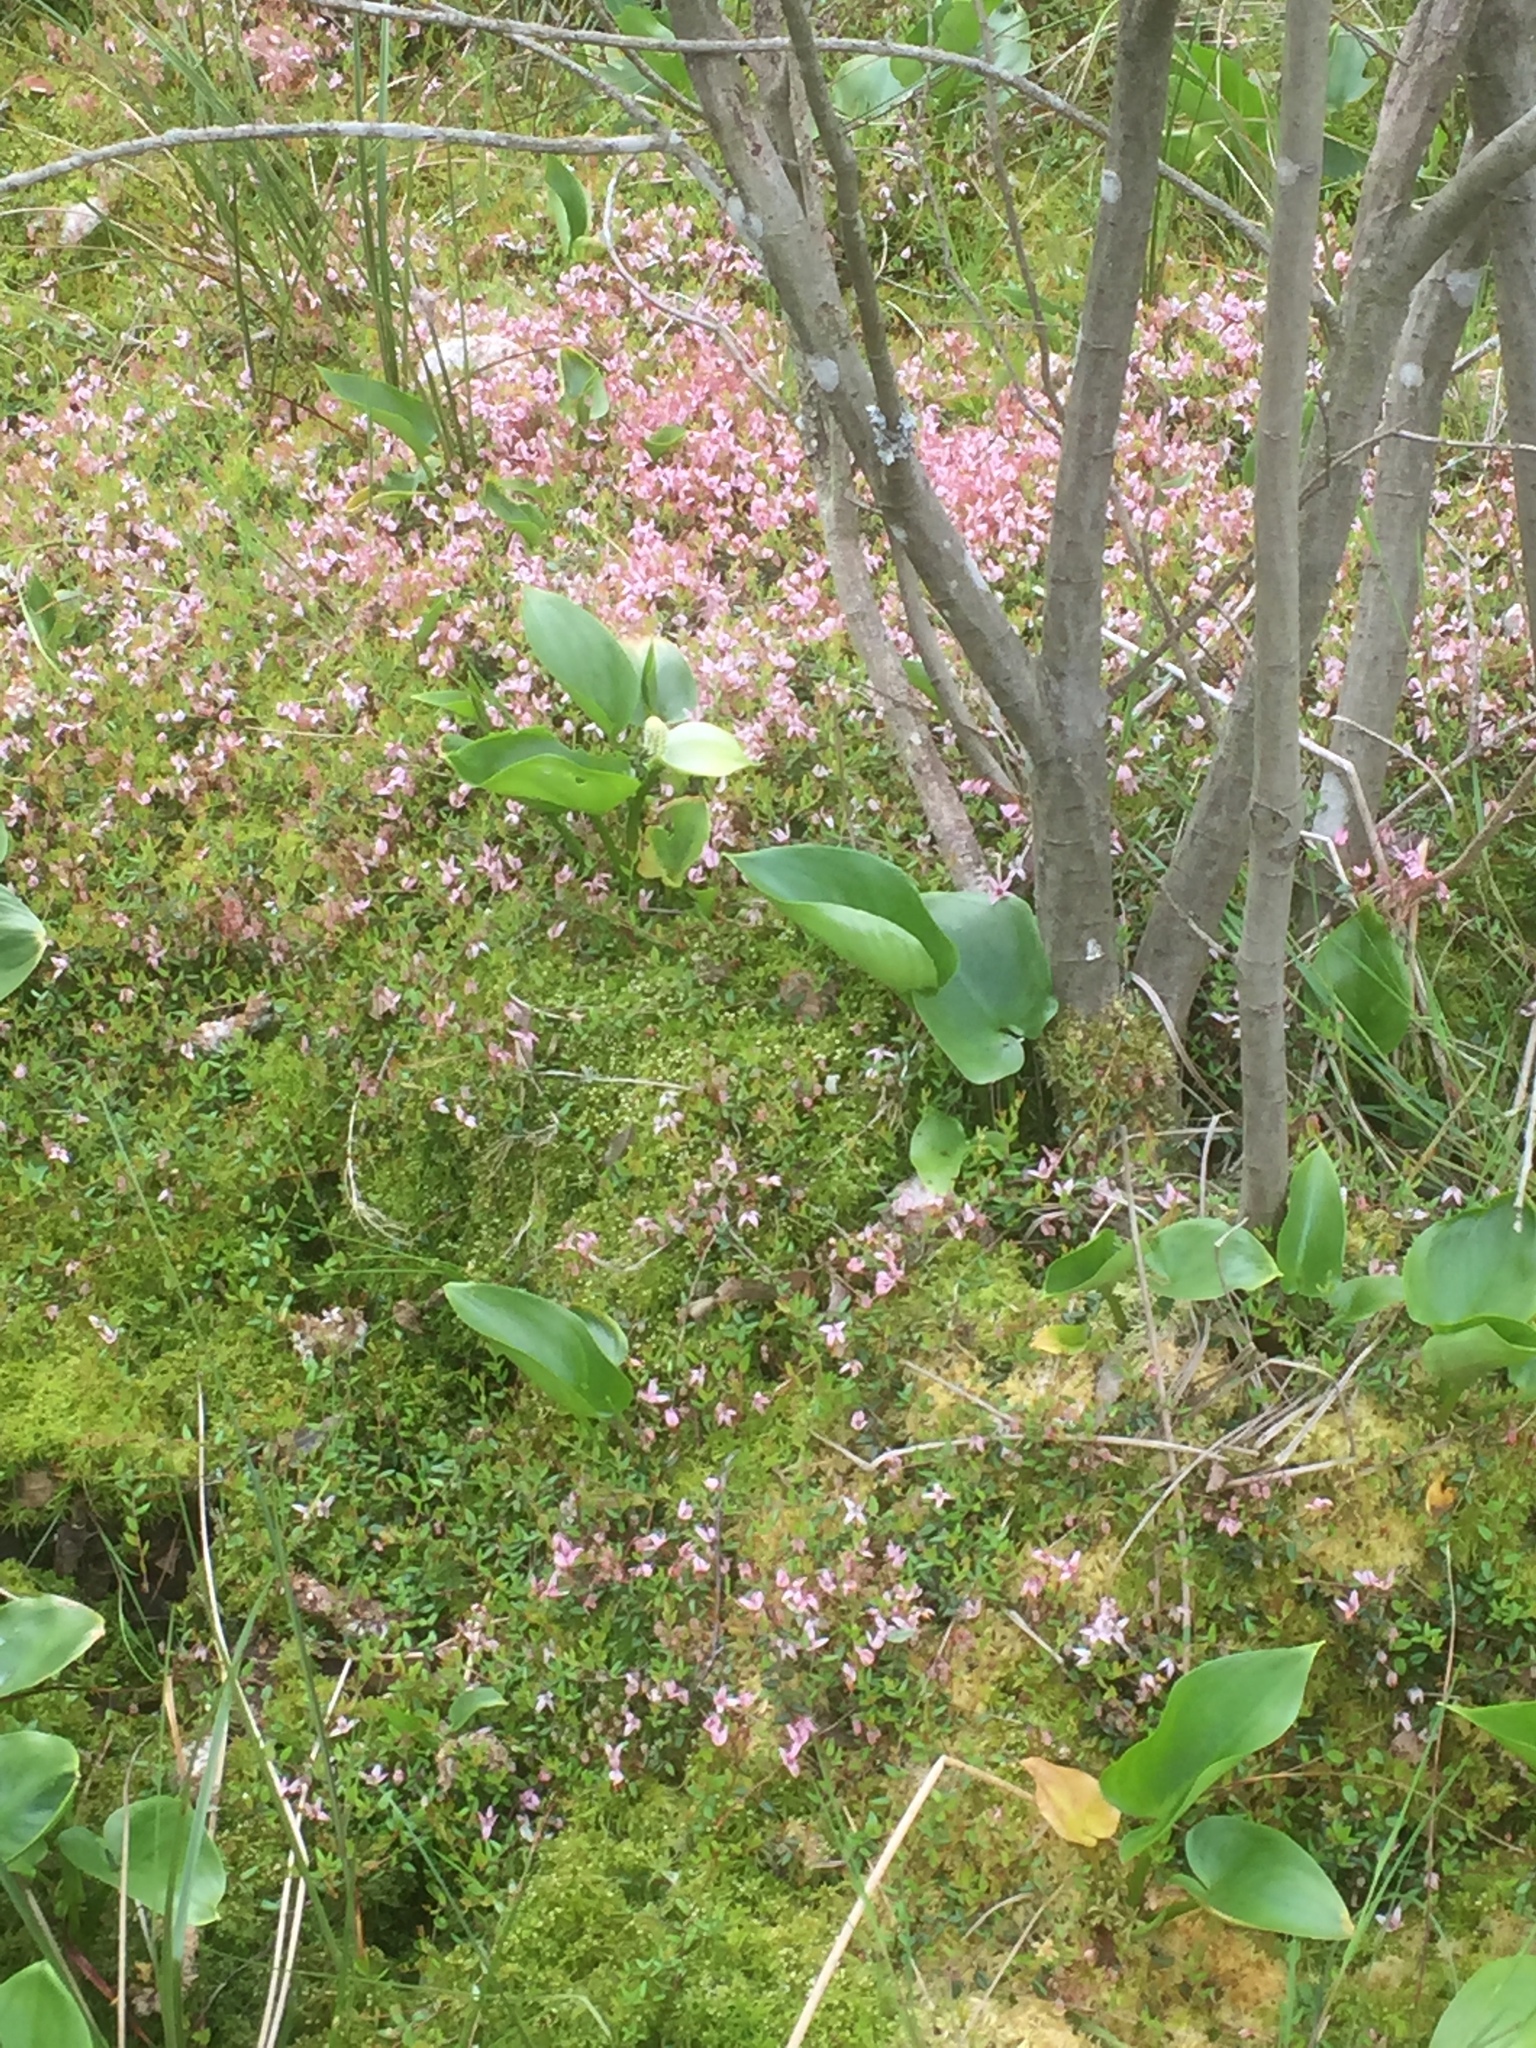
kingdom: Plantae
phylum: Tracheophyta
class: Magnoliopsida
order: Ericales
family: Ericaceae
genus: Vaccinium
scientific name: Vaccinium oxycoccos
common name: Cranberry
